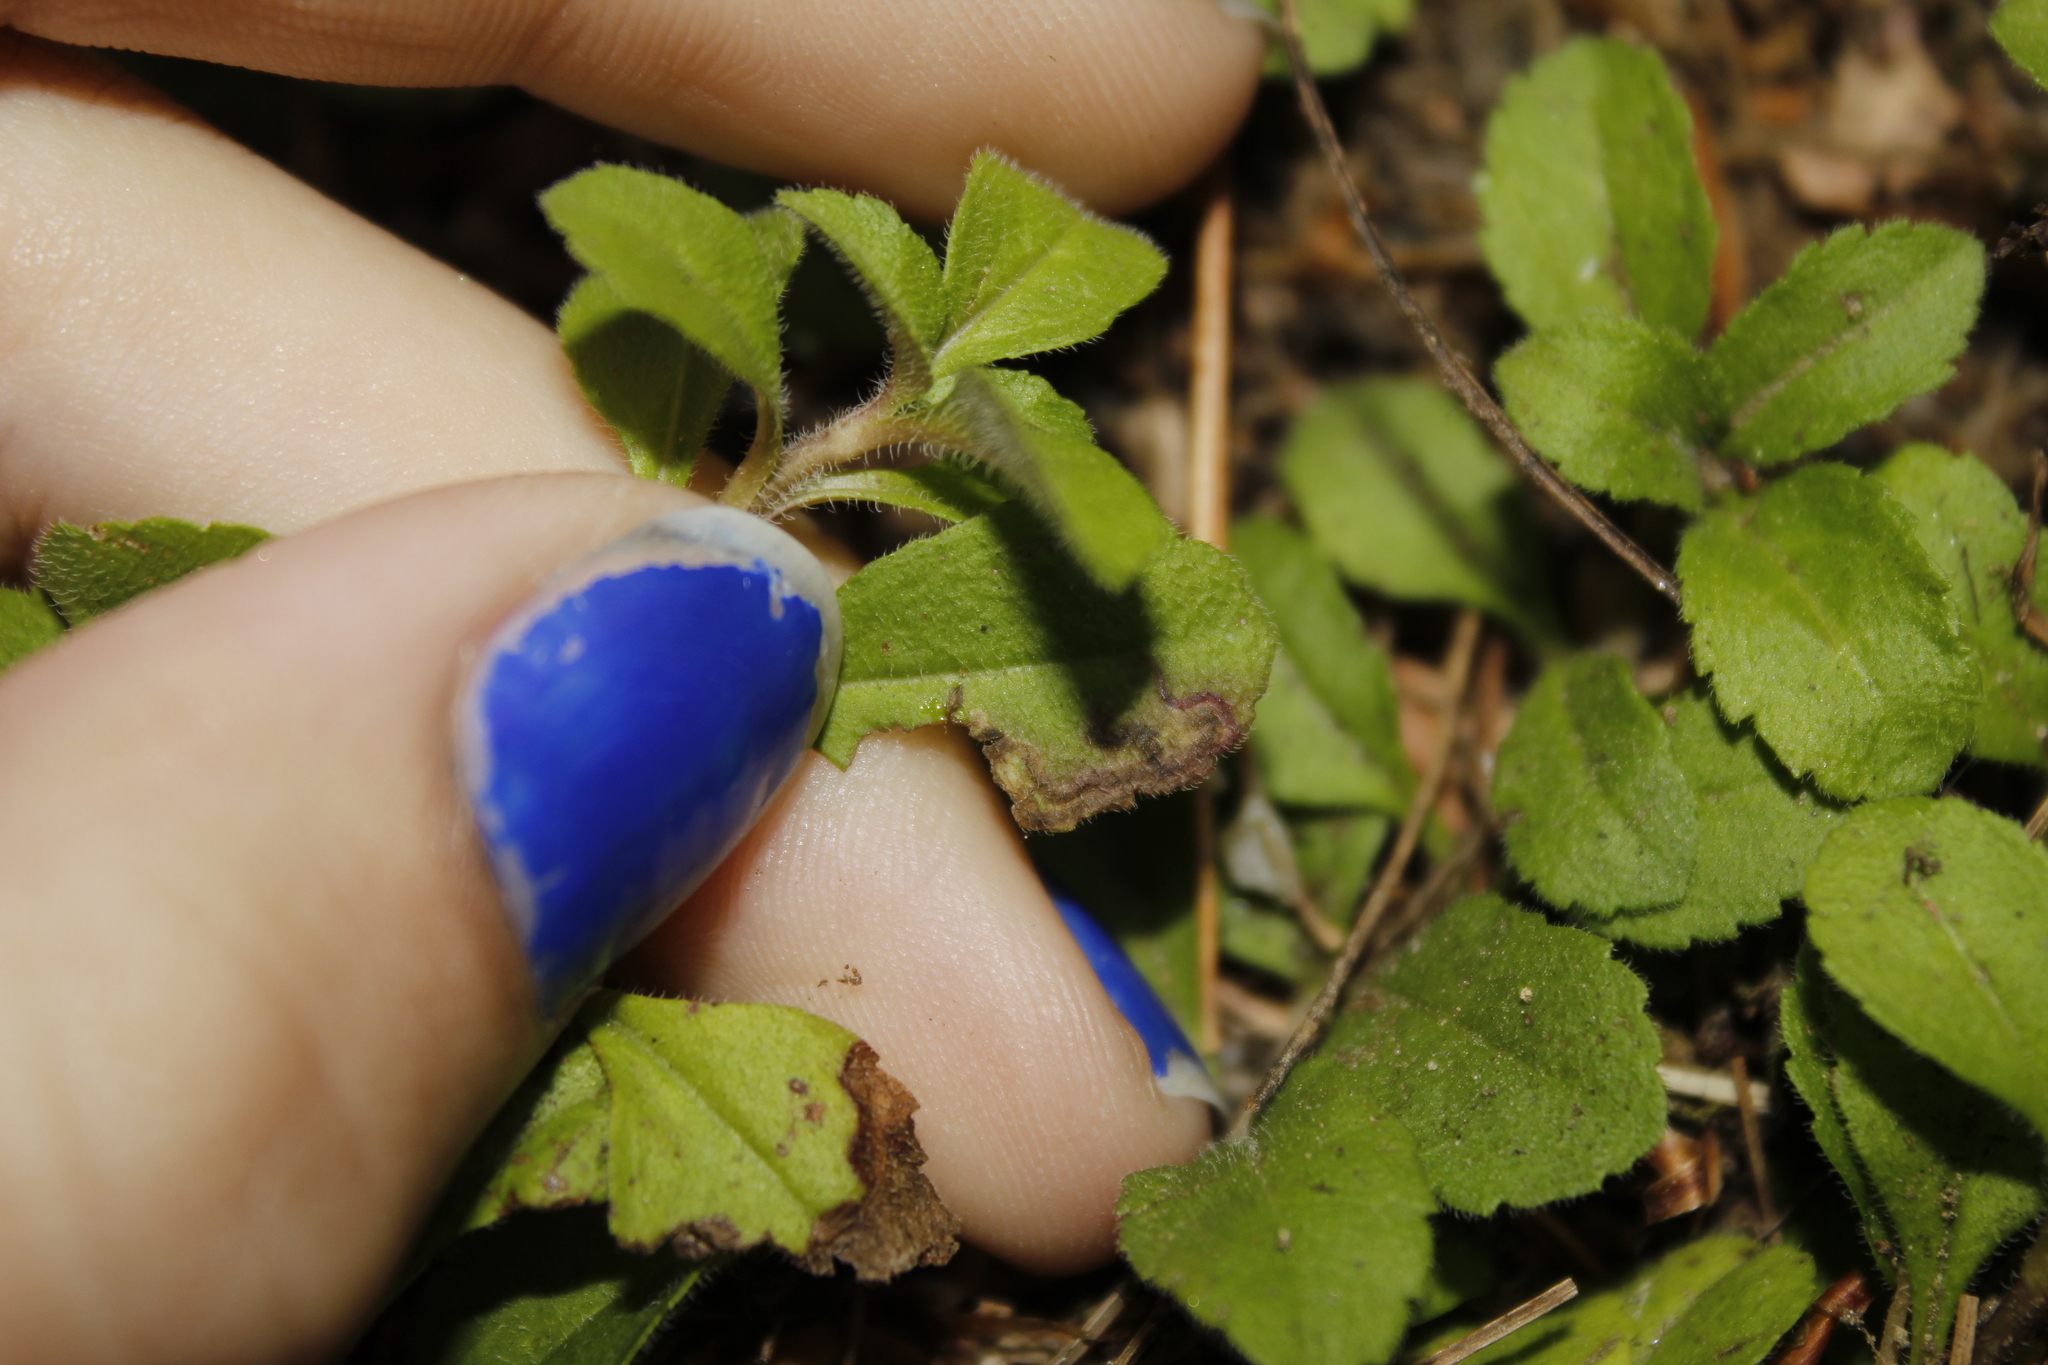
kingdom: Animalia
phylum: Arthropoda
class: Insecta
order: Diptera
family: Agromyzidae
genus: Phytomyza
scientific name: Phytomyza crassiseta
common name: Leaf-miner fly
